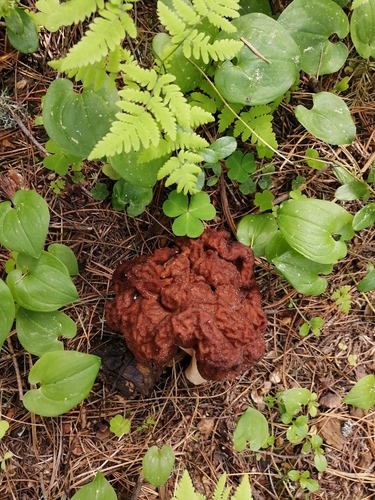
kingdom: Fungi
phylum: Ascomycota
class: Pezizomycetes
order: Pezizales
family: Discinaceae
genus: Gyromitra
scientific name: Gyromitra
